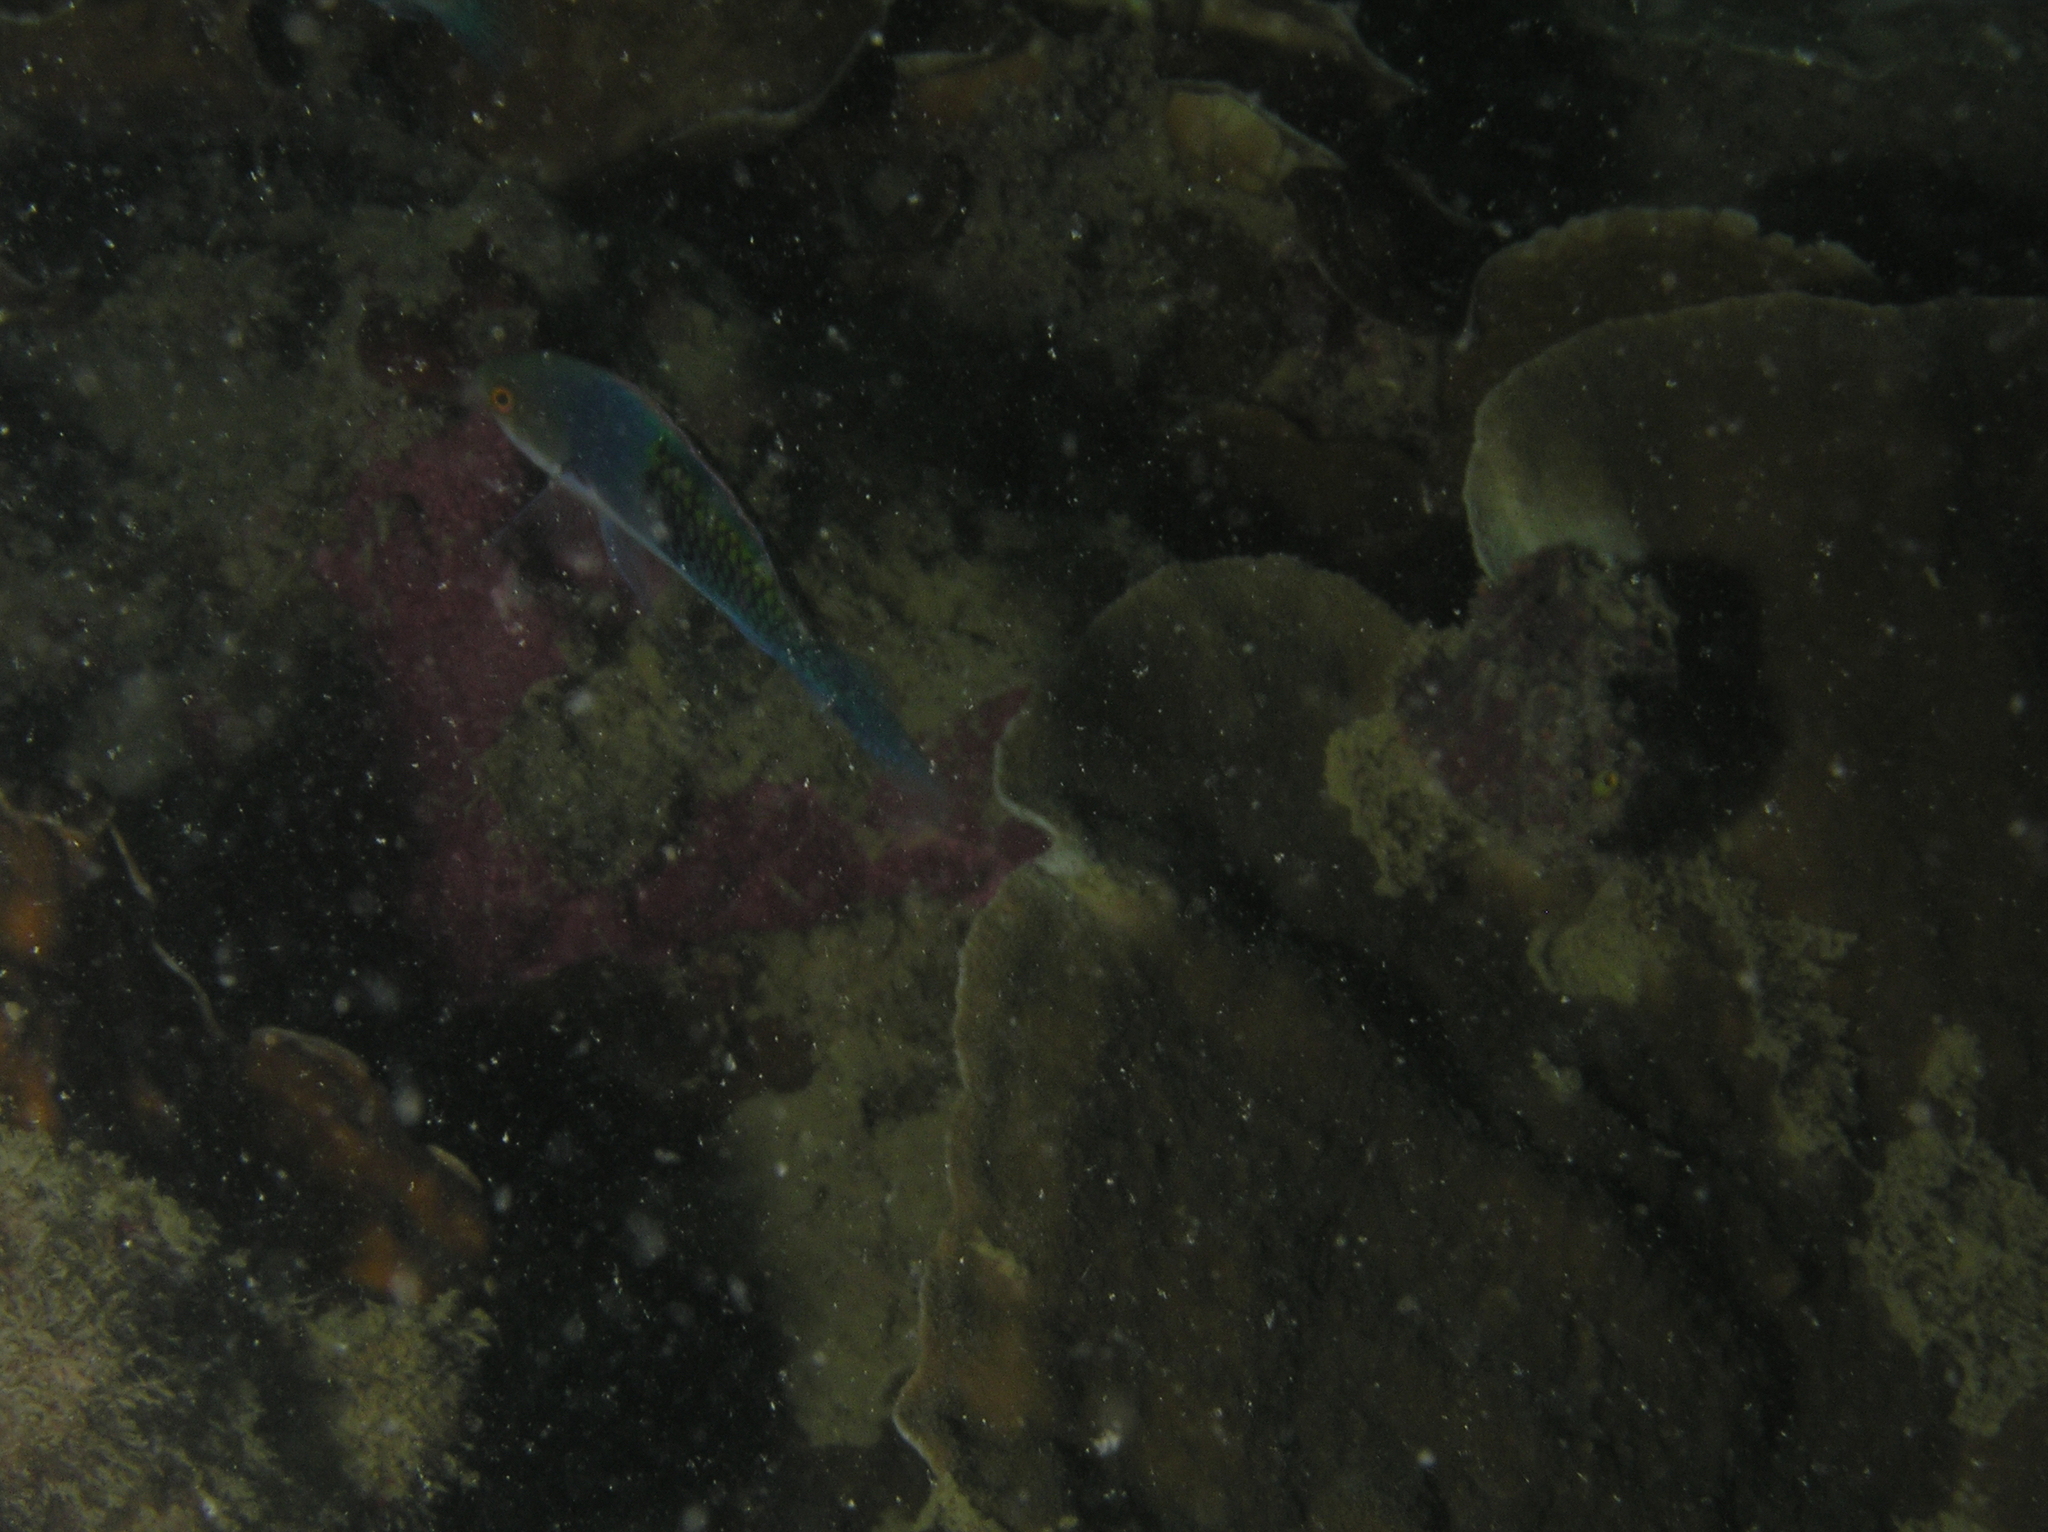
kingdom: Animalia
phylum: Chordata
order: Perciformes
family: Labridae
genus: Cirrhilabrus
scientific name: Cirrhilabrus cyanopleura
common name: Coralline wrasse
